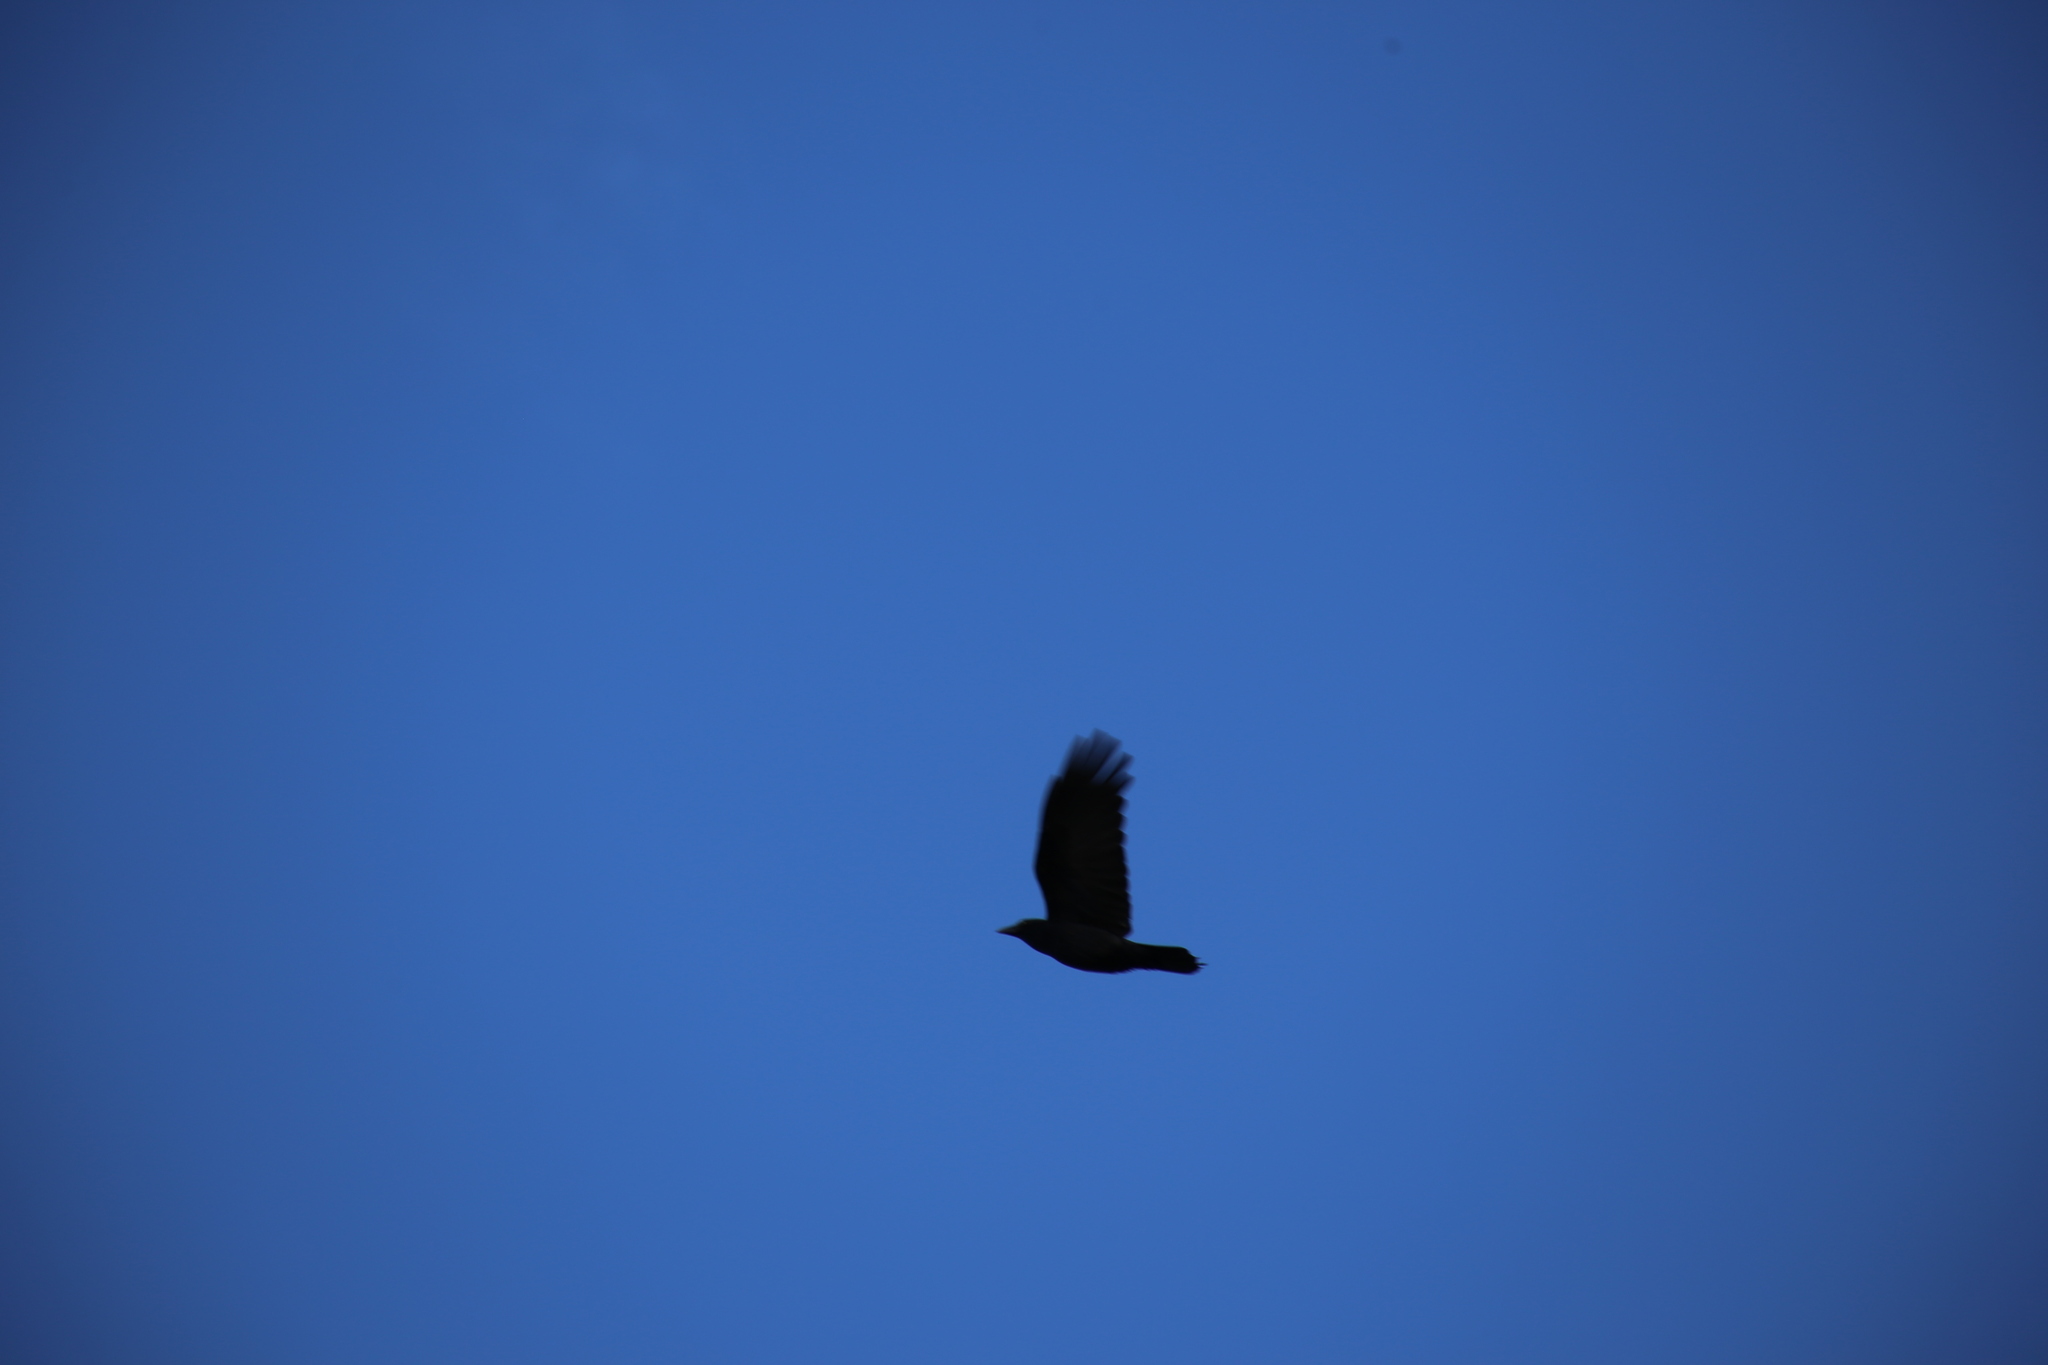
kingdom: Animalia
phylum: Chordata
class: Aves
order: Passeriformes
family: Corvidae
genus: Corvus
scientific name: Corvus orru
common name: Torresian crow
